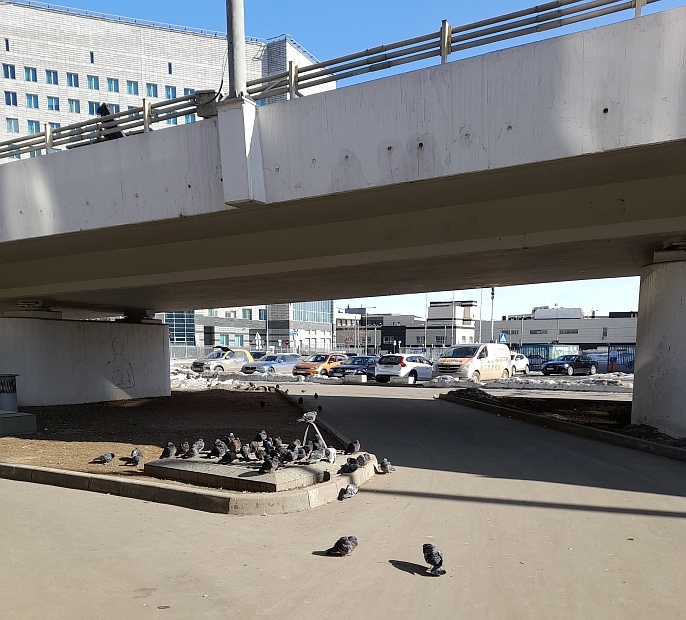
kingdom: Animalia
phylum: Chordata
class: Aves
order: Columbiformes
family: Columbidae
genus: Columba
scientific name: Columba livia
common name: Rock pigeon
